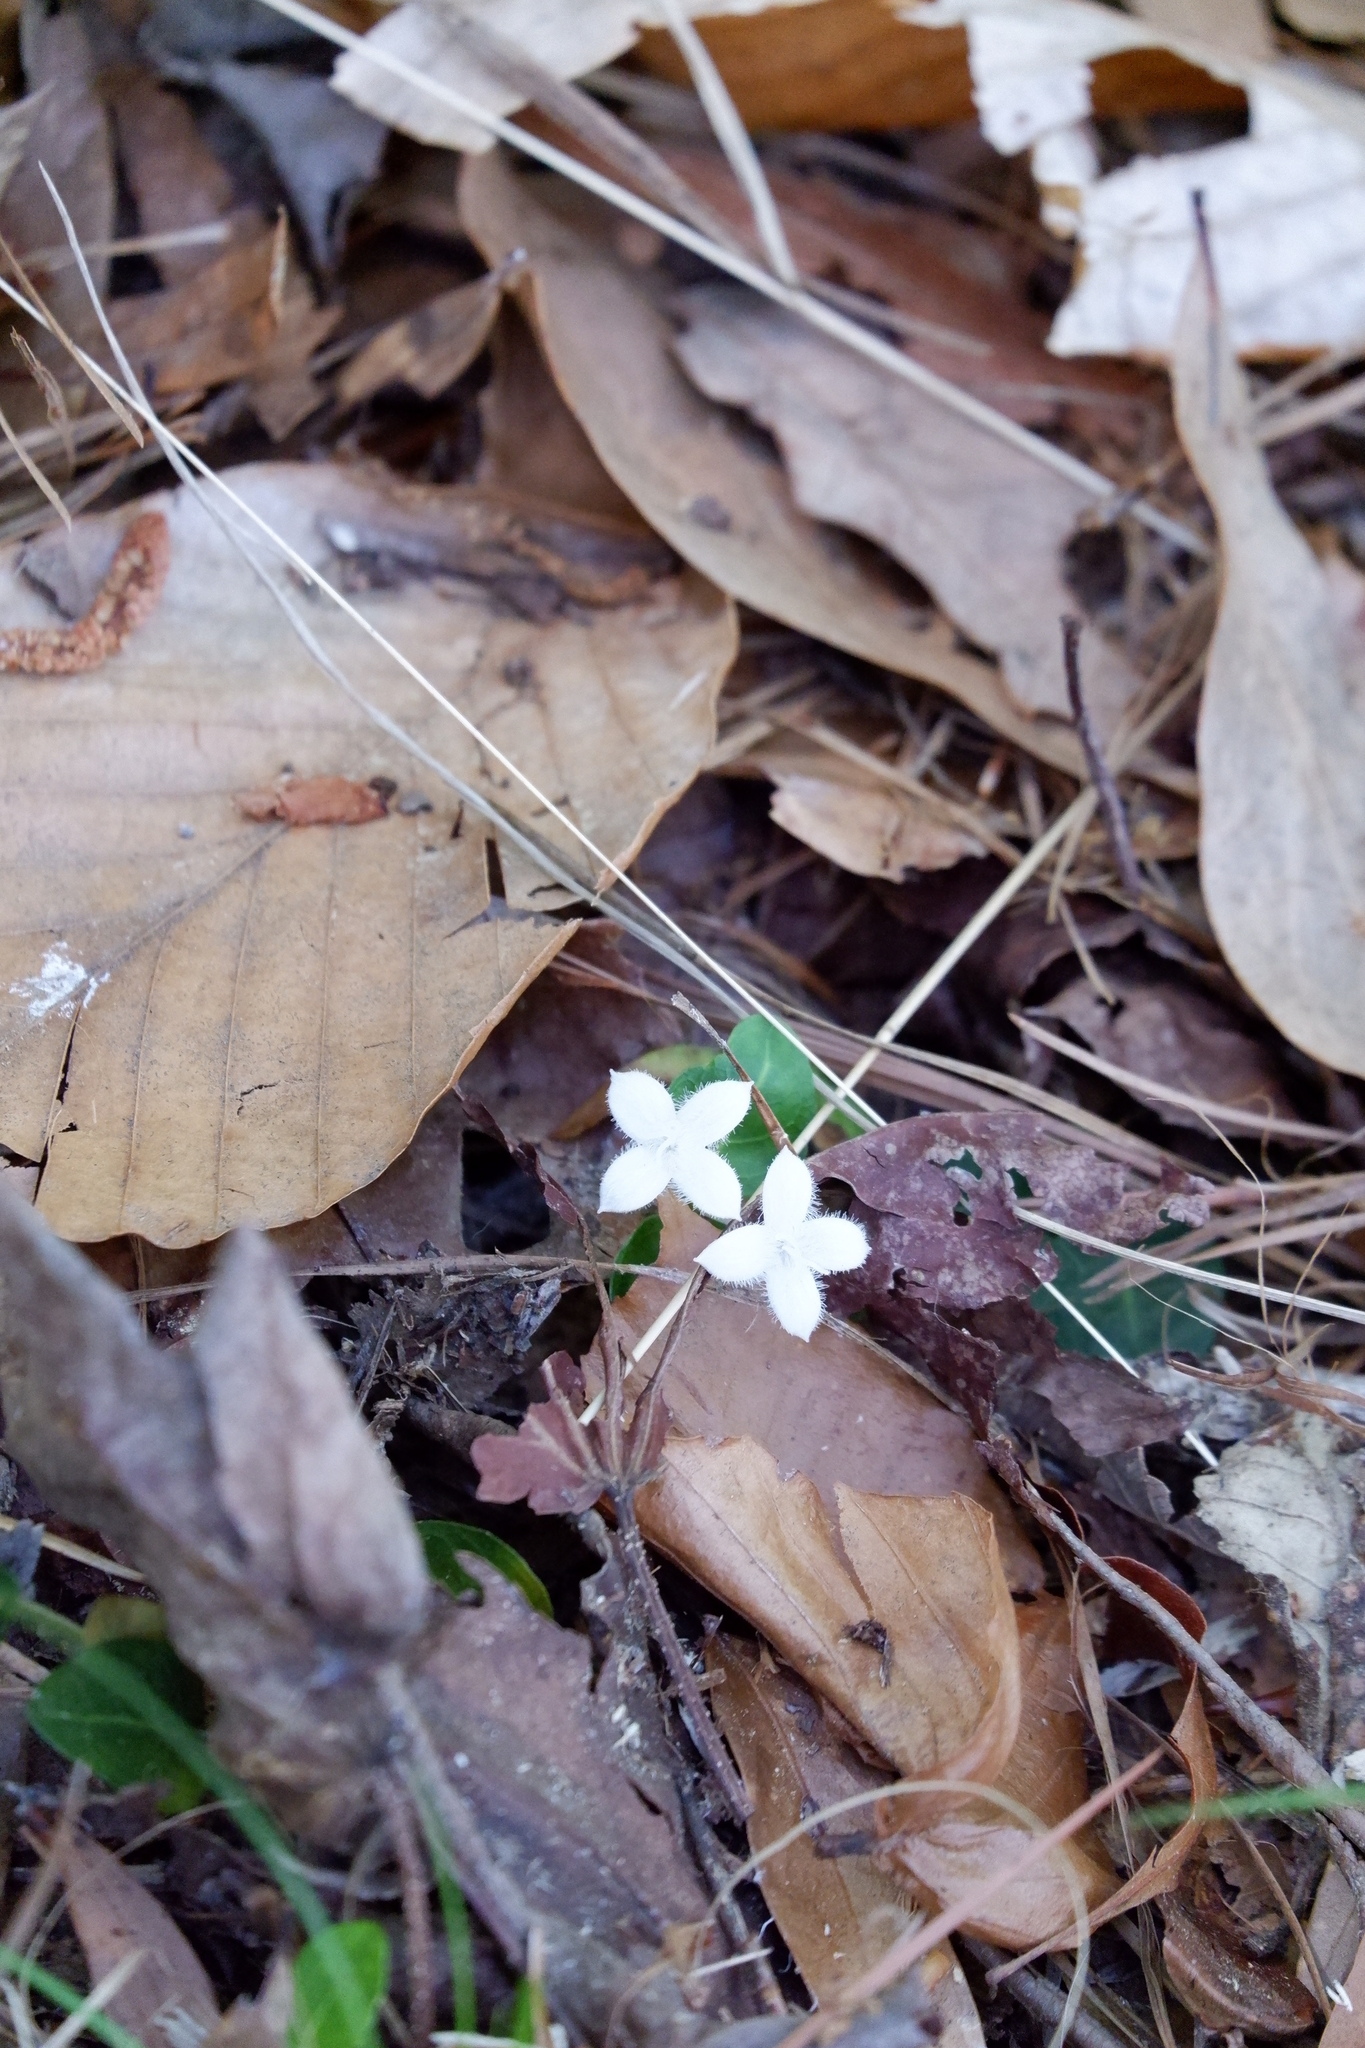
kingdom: Plantae
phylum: Tracheophyta
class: Magnoliopsida
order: Gentianales
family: Rubiaceae
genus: Mitchella
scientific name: Mitchella repens
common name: Partridge-berry
